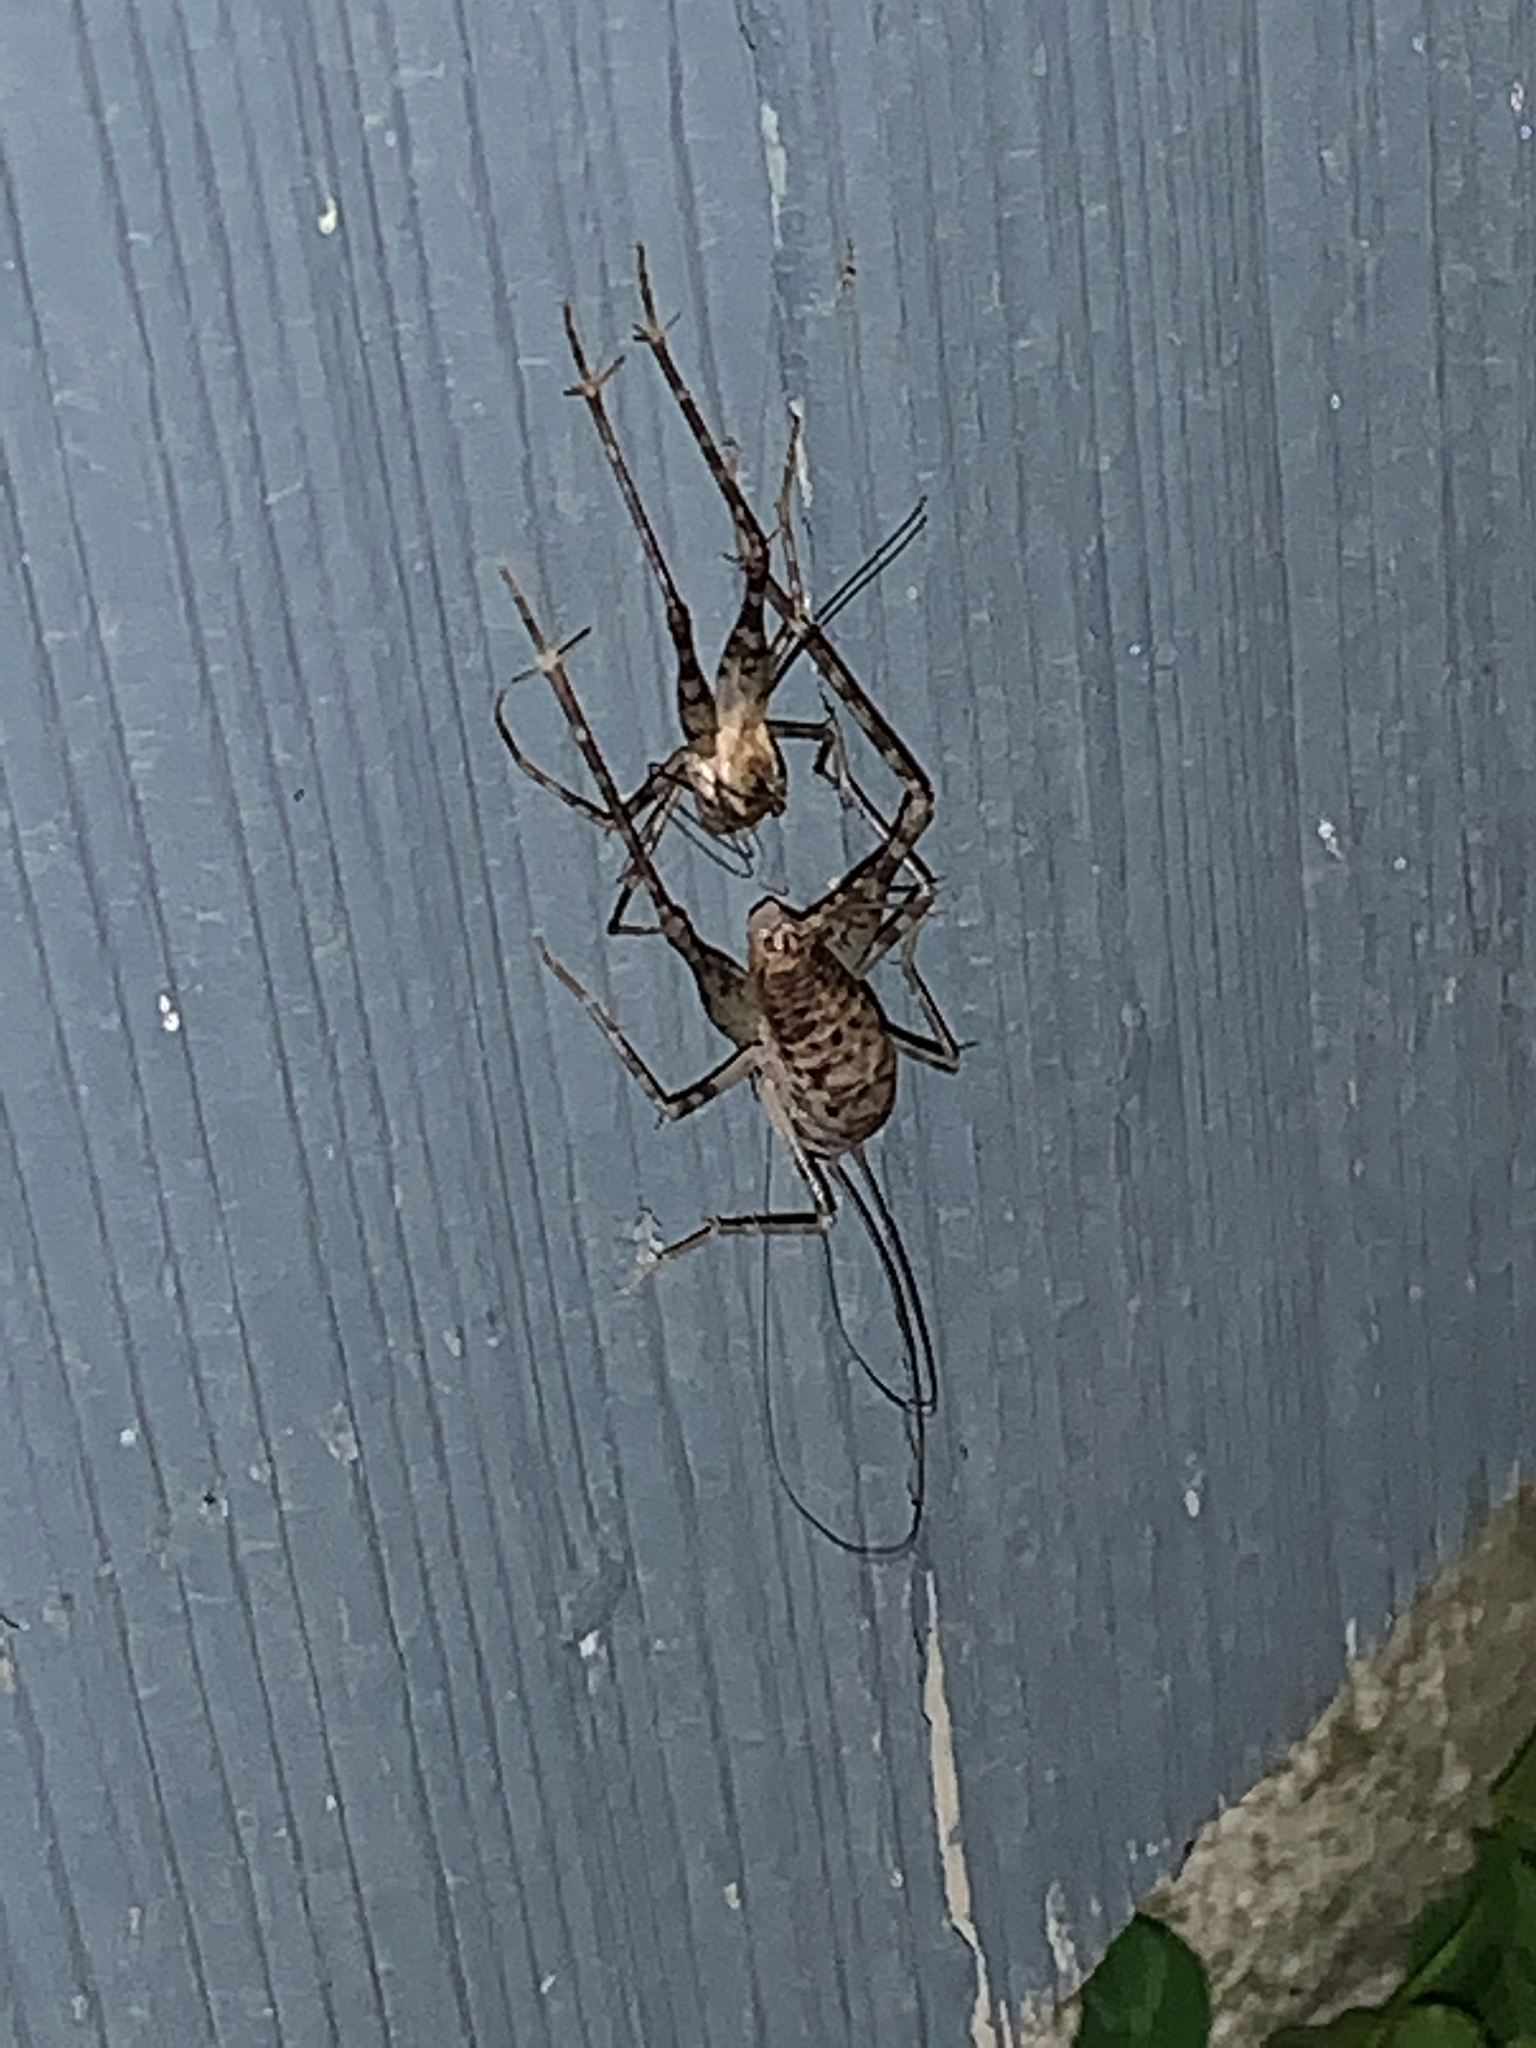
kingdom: Animalia
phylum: Arthropoda
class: Insecta
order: Orthoptera
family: Rhaphidophoridae
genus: Tachycines
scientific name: Tachycines asynamorus
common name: Greenhouse camel cricket
